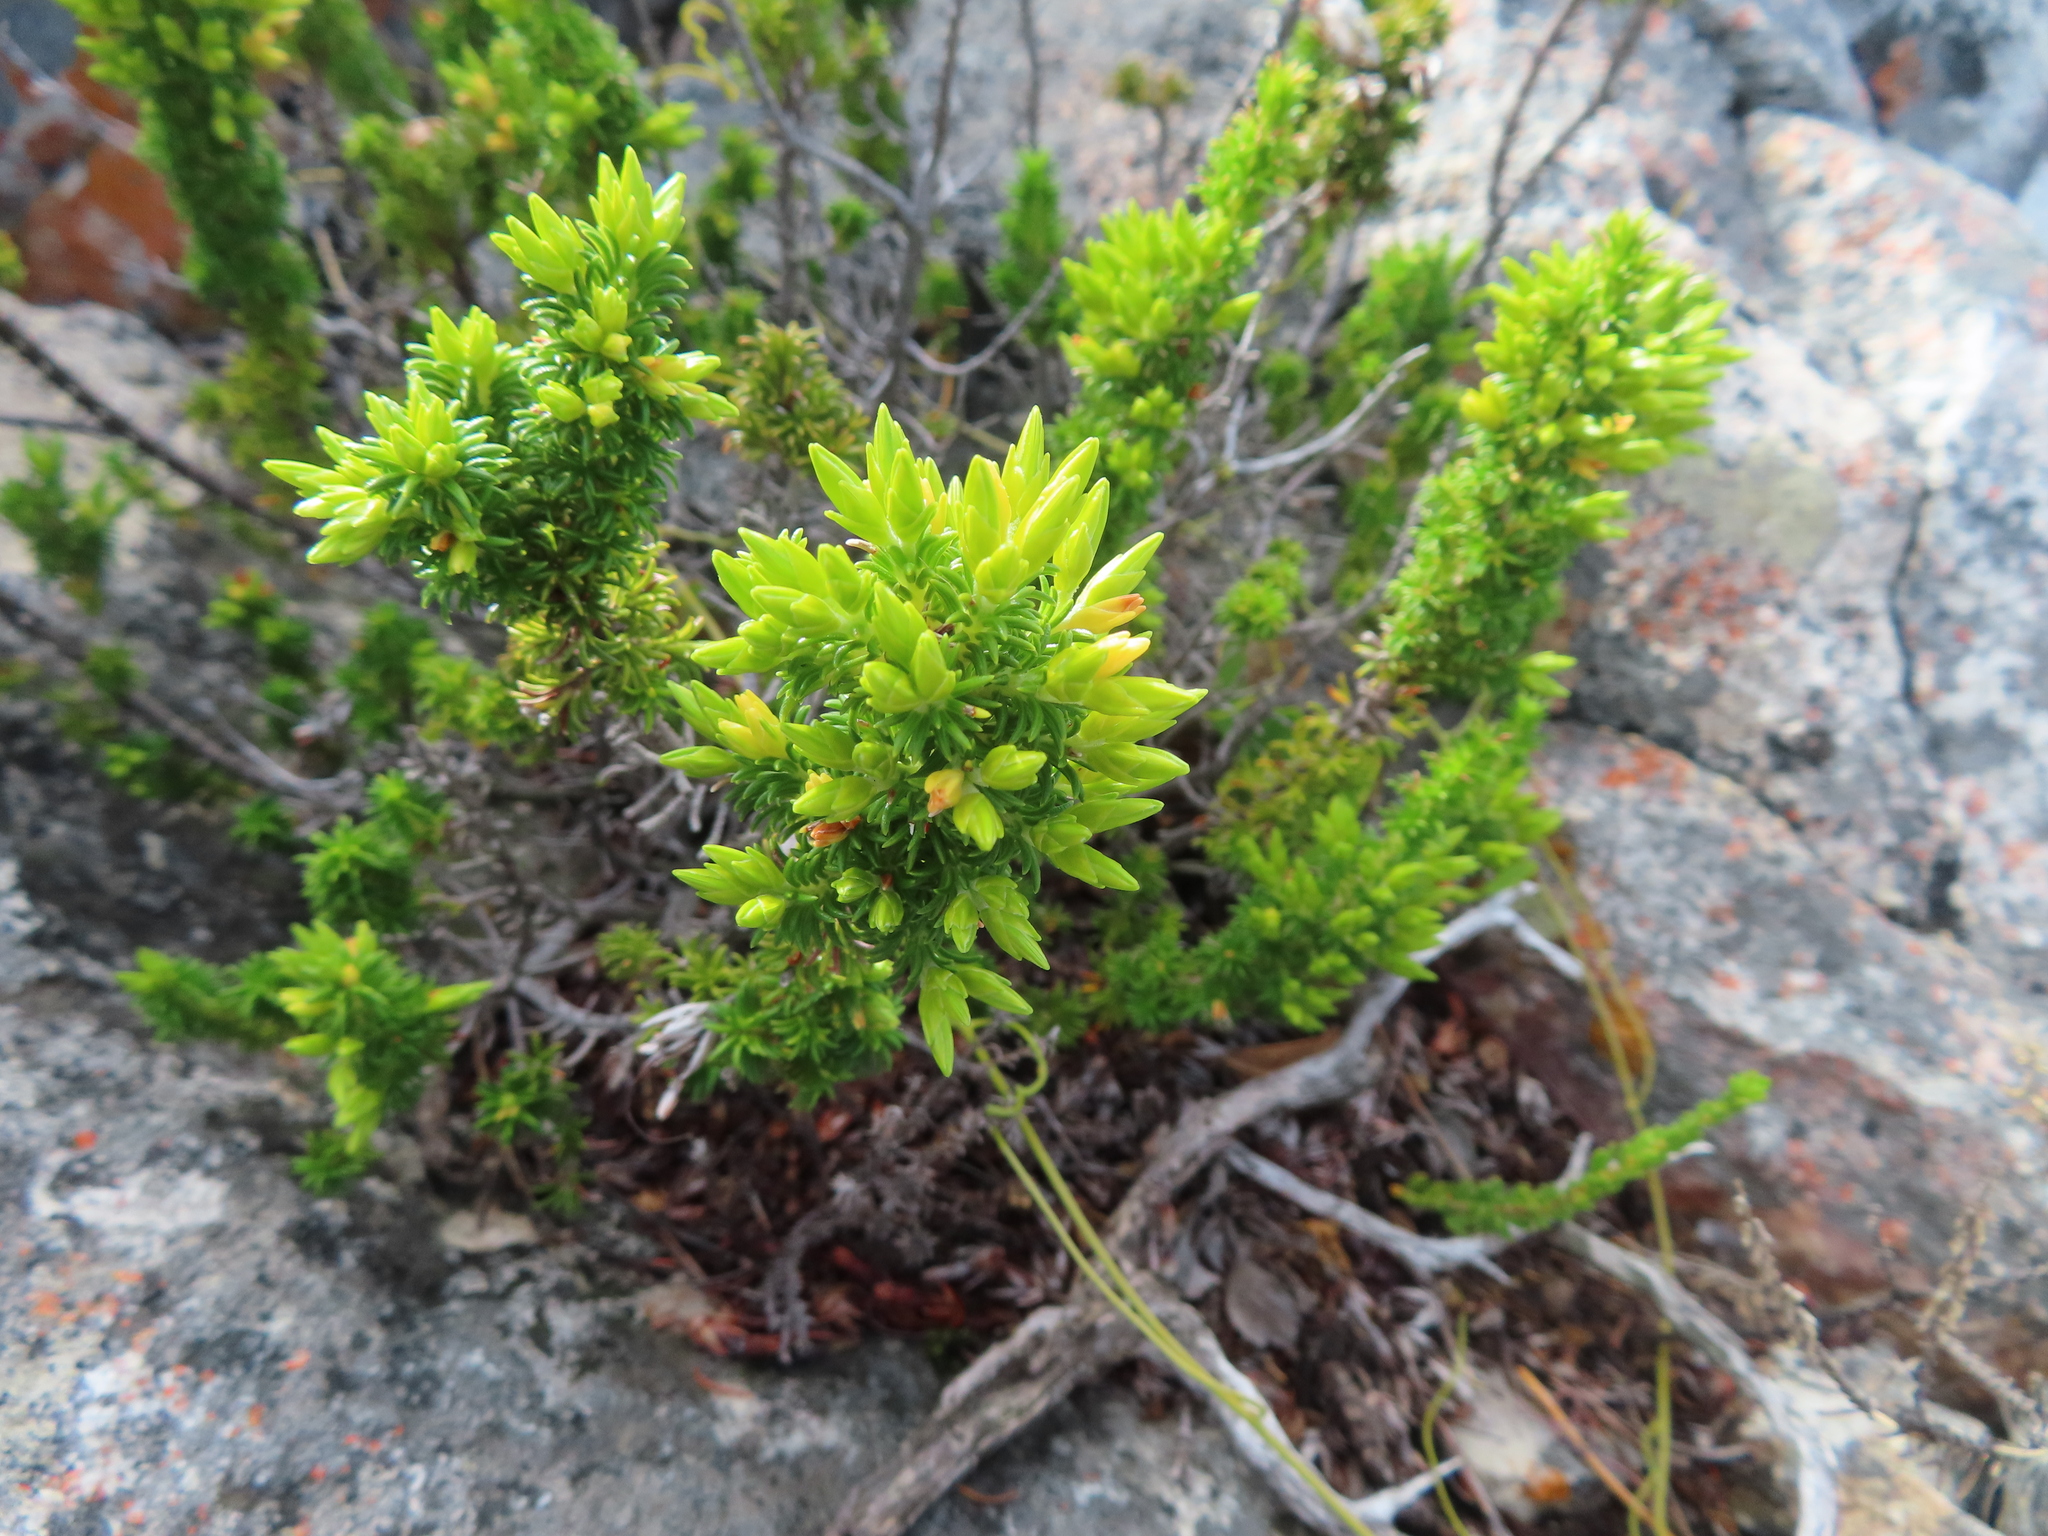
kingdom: Plantae
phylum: Tracheophyta
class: Magnoliopsida
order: Ericales
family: Ericaceae
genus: Erica
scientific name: Erica coccinea
